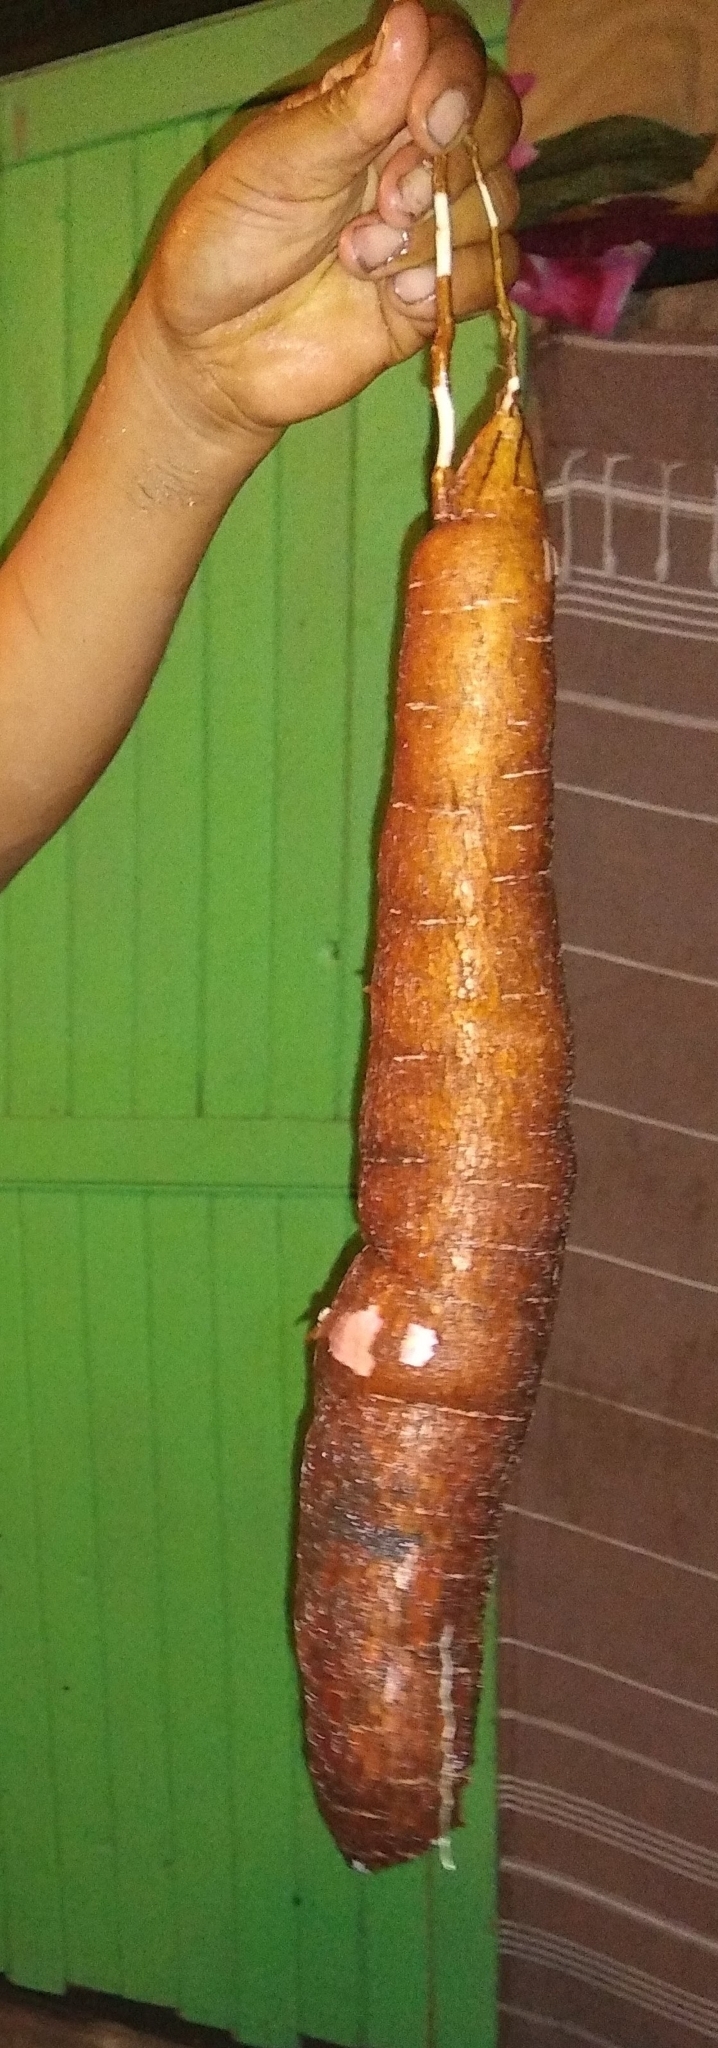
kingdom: Plantae
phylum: Tracheophyta
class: Magnoliopsida
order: Malpighiales
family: Euphorbiaceae
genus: Manihot
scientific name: Manihot esculenta
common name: Cassava
